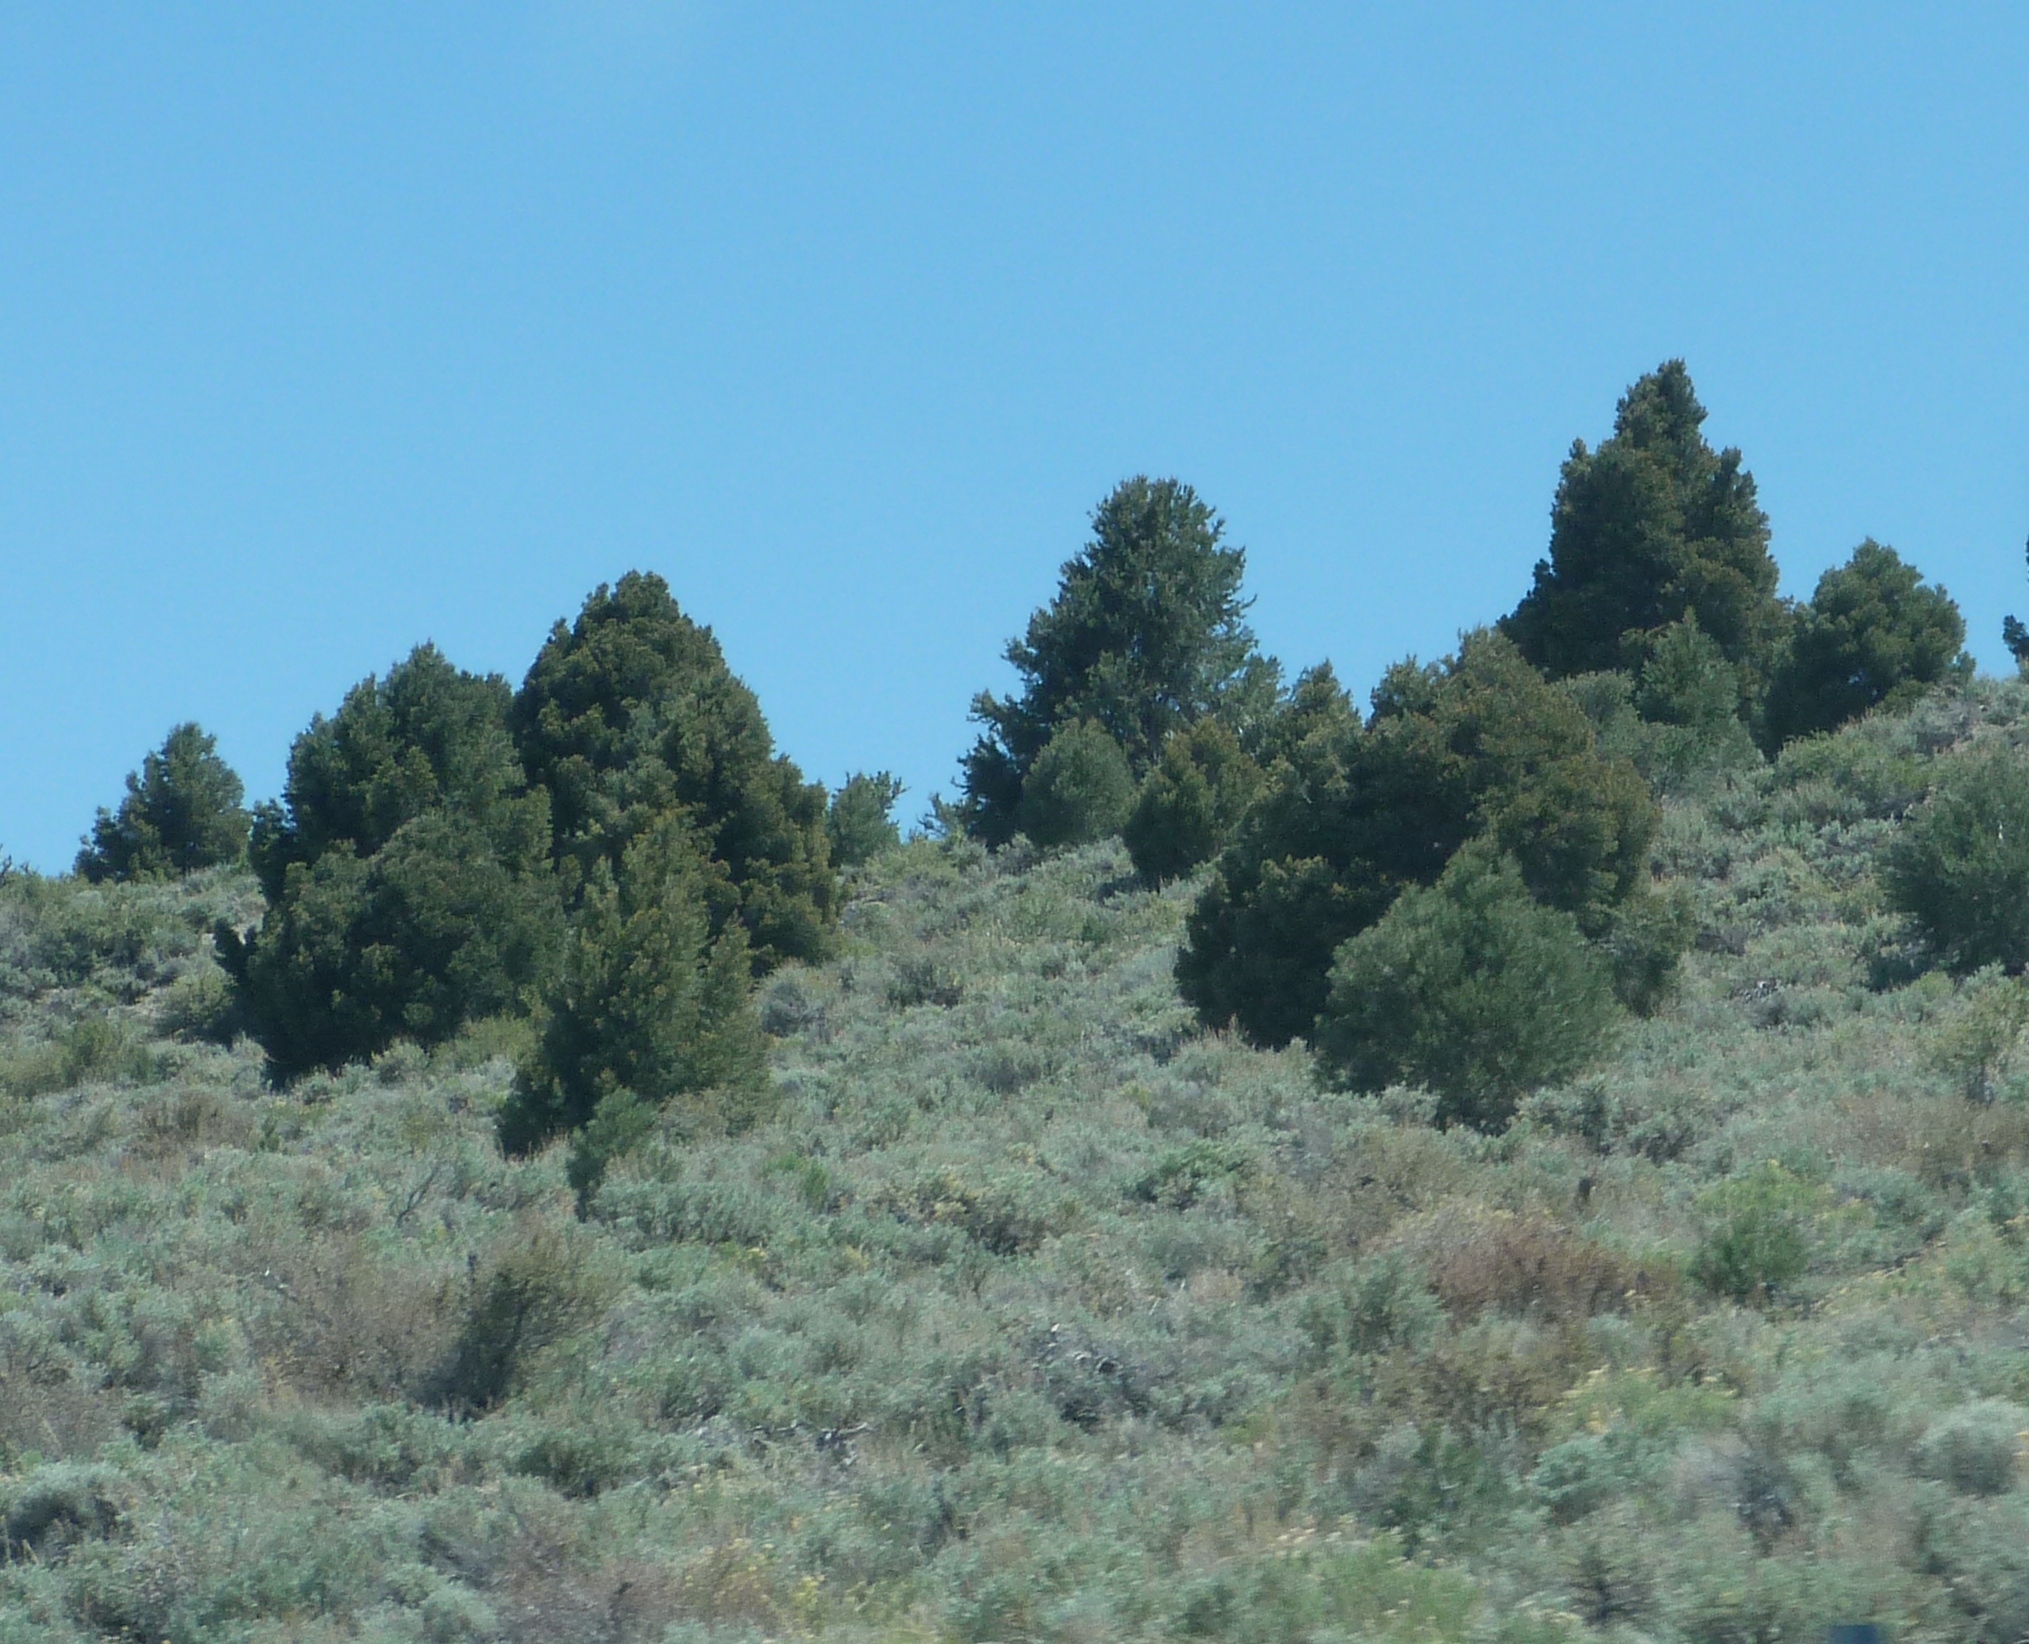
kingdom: Plantae
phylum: Tracheophyta
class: Pinopsida
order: Pinales
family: Pinaceae
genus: Pinus
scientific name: Pinus monophylla
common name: One-leaved nut pine
